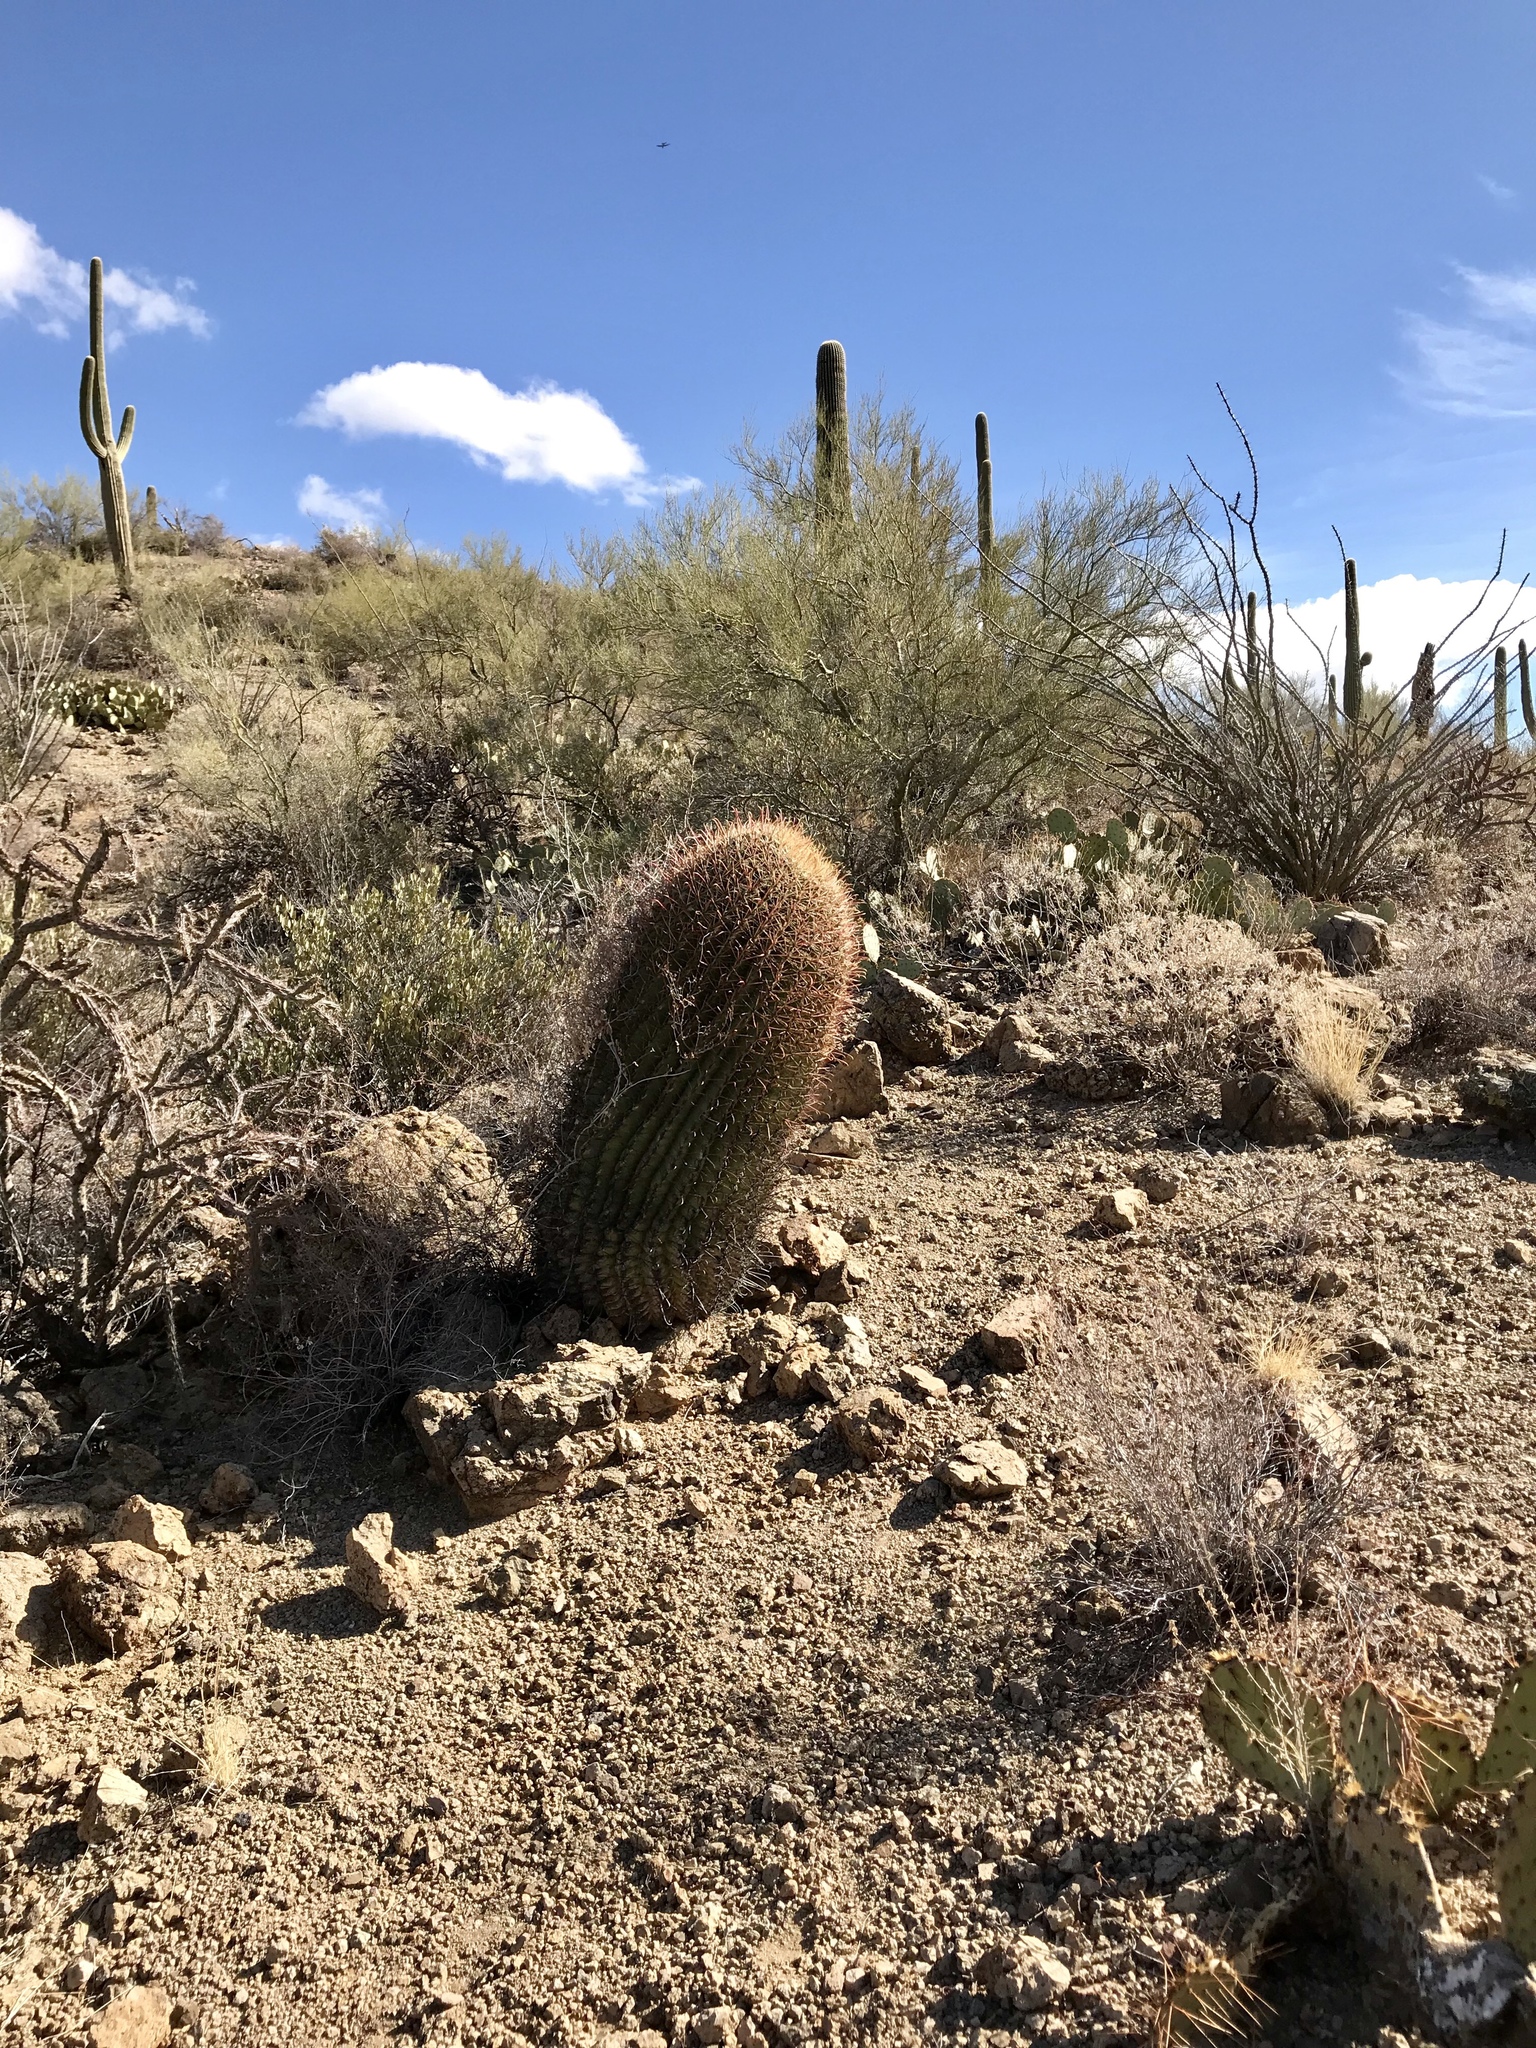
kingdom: Plantae
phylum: Tracheophyta
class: Magnoliopsida
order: Caryophyllales
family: Cactaceae
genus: Ferocactus
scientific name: Ferocactus cylindraceus
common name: California barrel cactus
